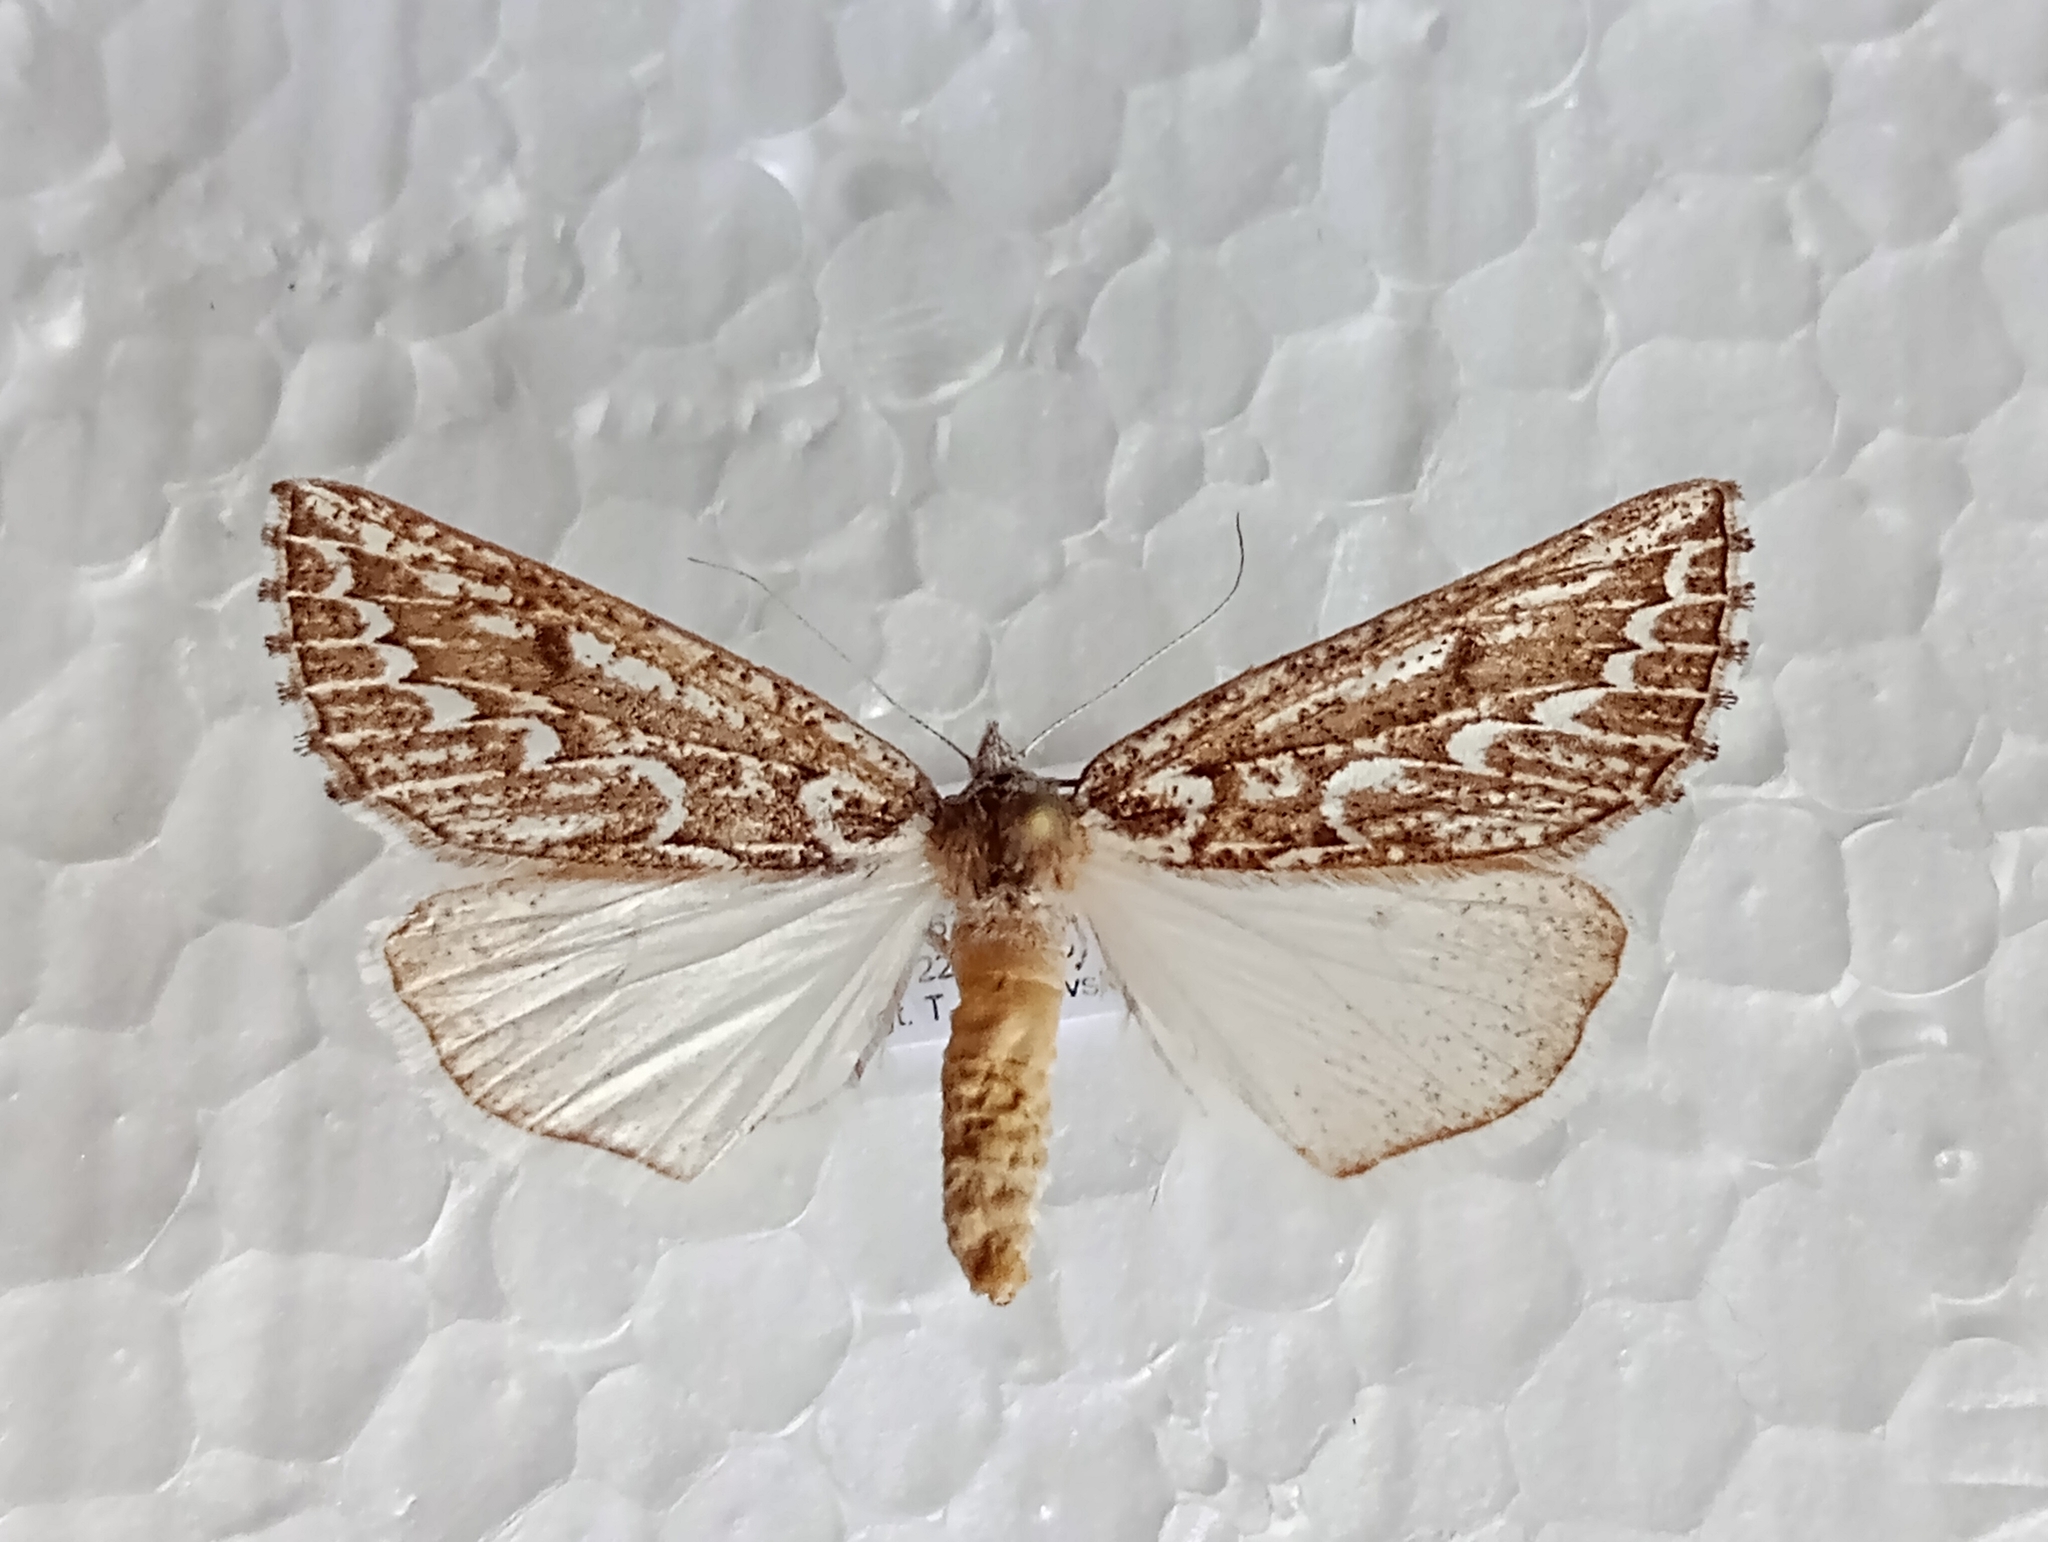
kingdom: Animalia
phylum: Arthropoda
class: Insecta
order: Lepidoptera
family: Geometridae
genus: Compsoptera
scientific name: Compsoptera jourdanaria
